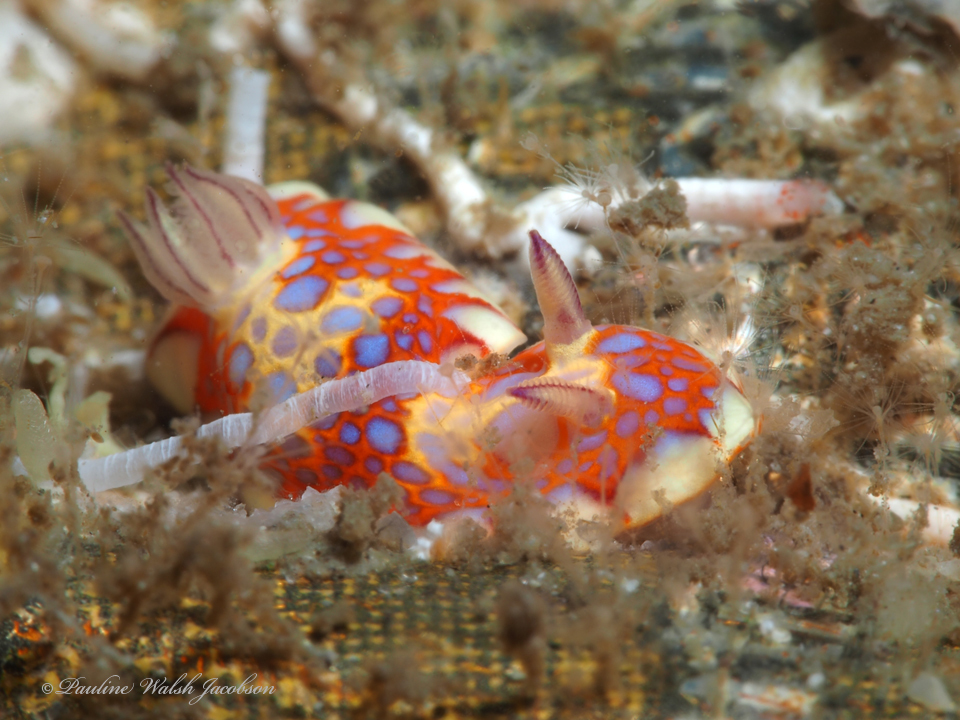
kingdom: Animalia
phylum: Mollusca
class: Gastropoda
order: Nudibranchia
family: Chromodorididae
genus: Felimida
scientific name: Felimida binza
